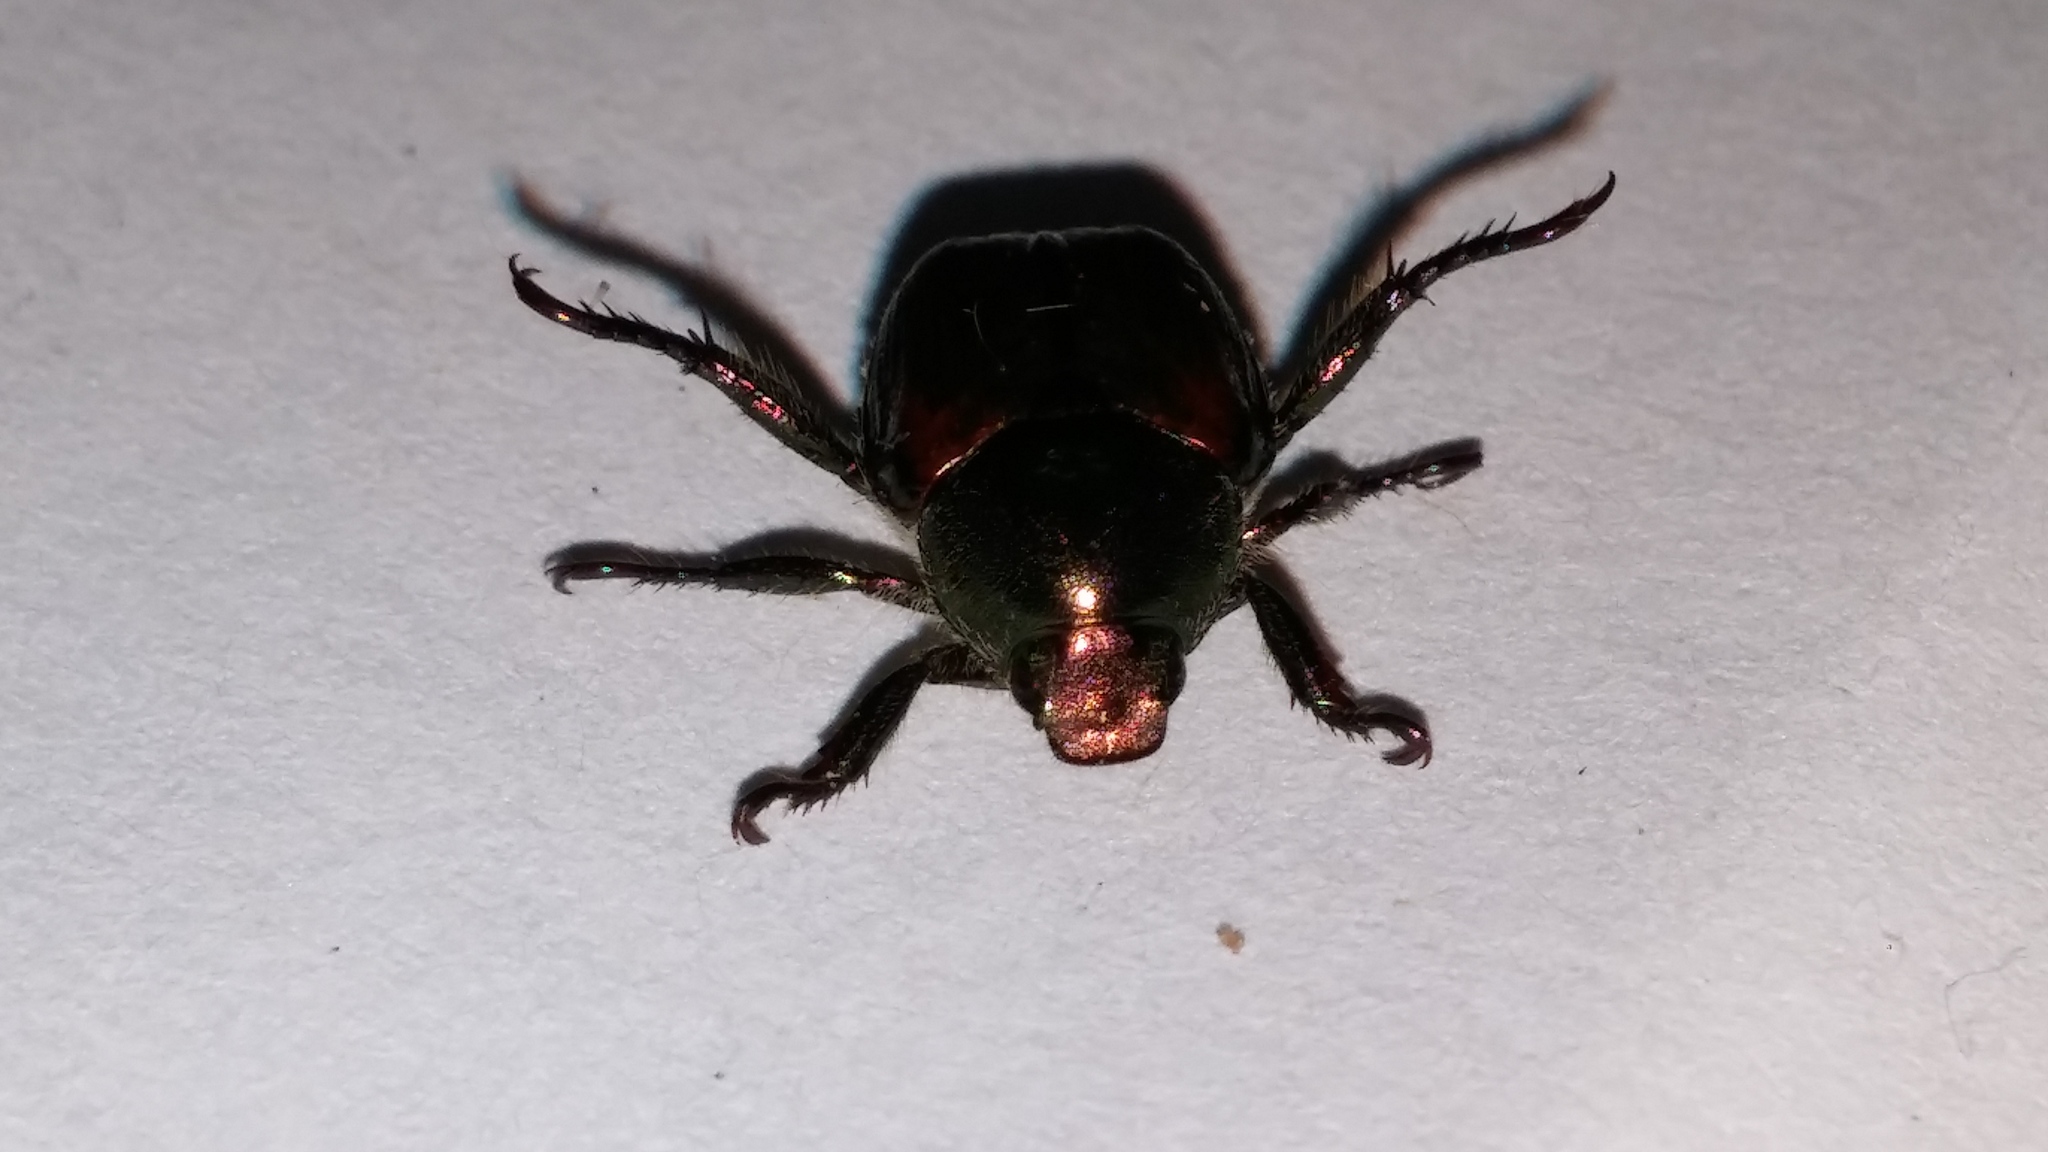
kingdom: Animalia
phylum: Arthropoda
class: Insecta
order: Coleoptera
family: Scarabaeidae
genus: Popillia
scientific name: Popillia japonica
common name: Japanese beetle
